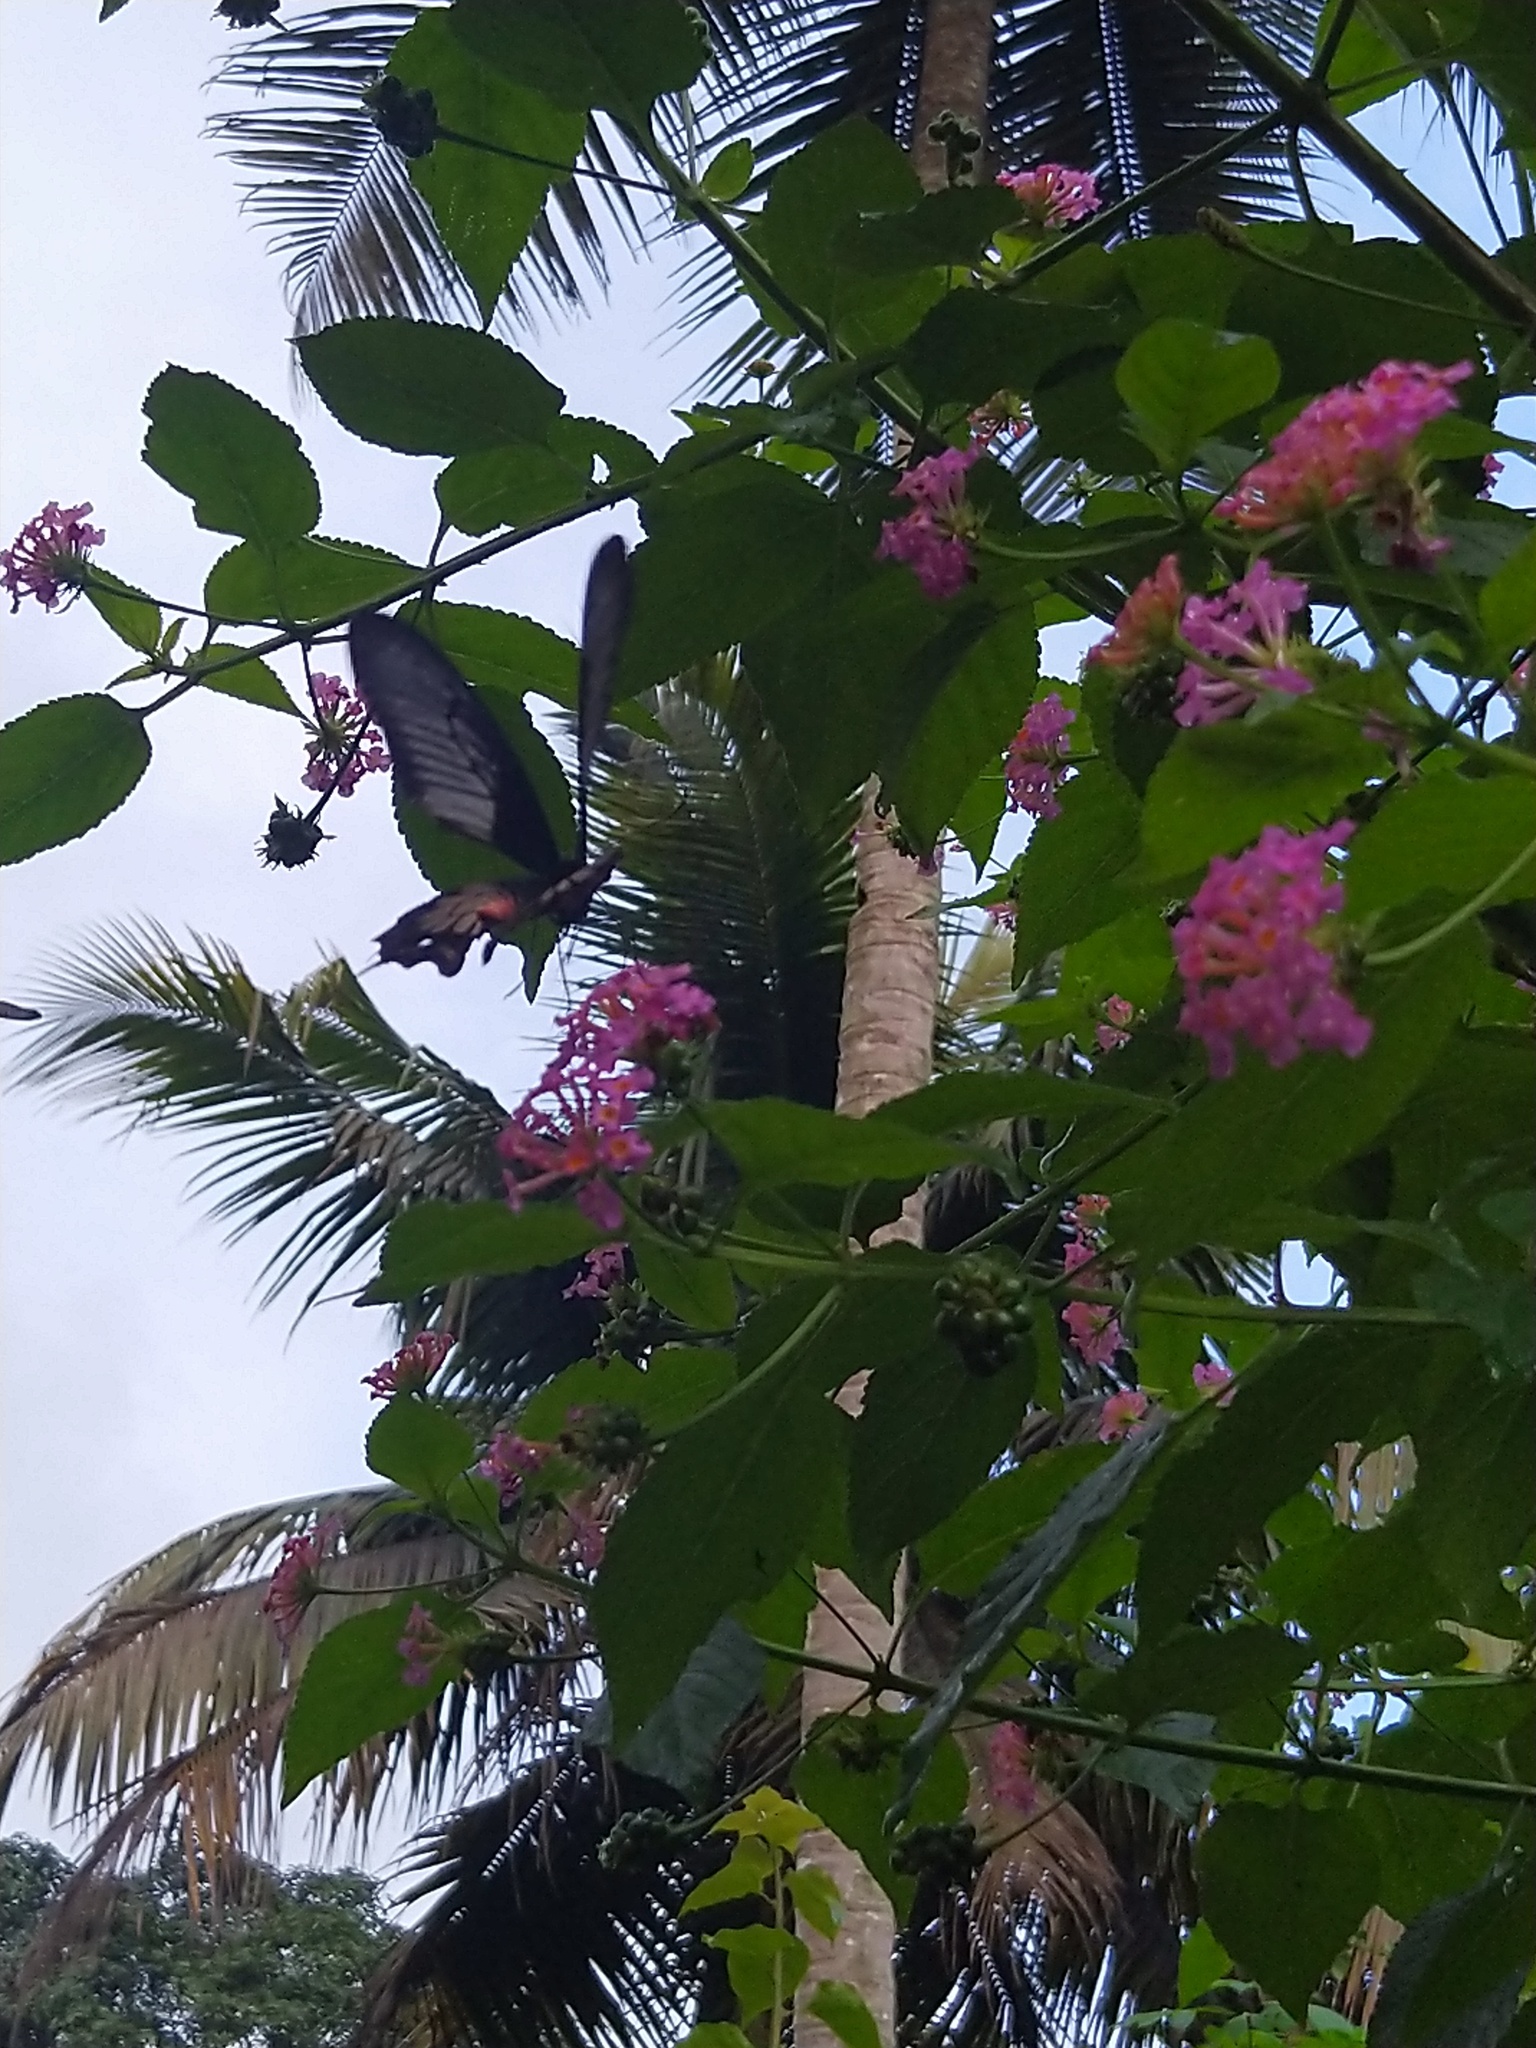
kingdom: Animalia
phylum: Arthropoda
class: Insecta
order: Lepidoptera
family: Papilionidae
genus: Pachliopta
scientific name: Pachliopta pandiyana
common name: Malabar rose
